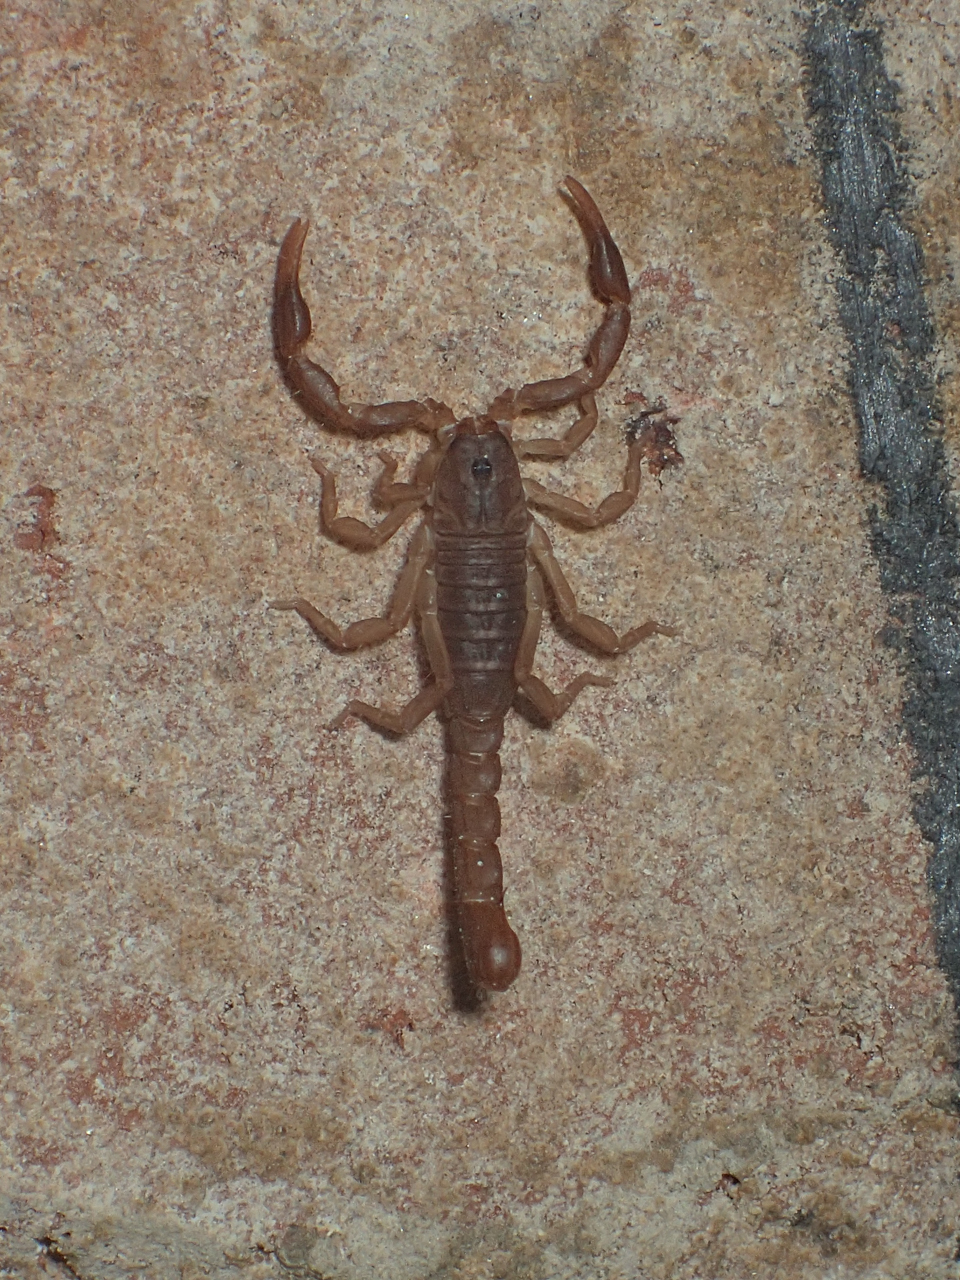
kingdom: Animalia
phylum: Arthropoda
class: Arachnida
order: Scorpiones
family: Vaejovidae
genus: Vaejovis
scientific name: Vaejovis carolinianus
